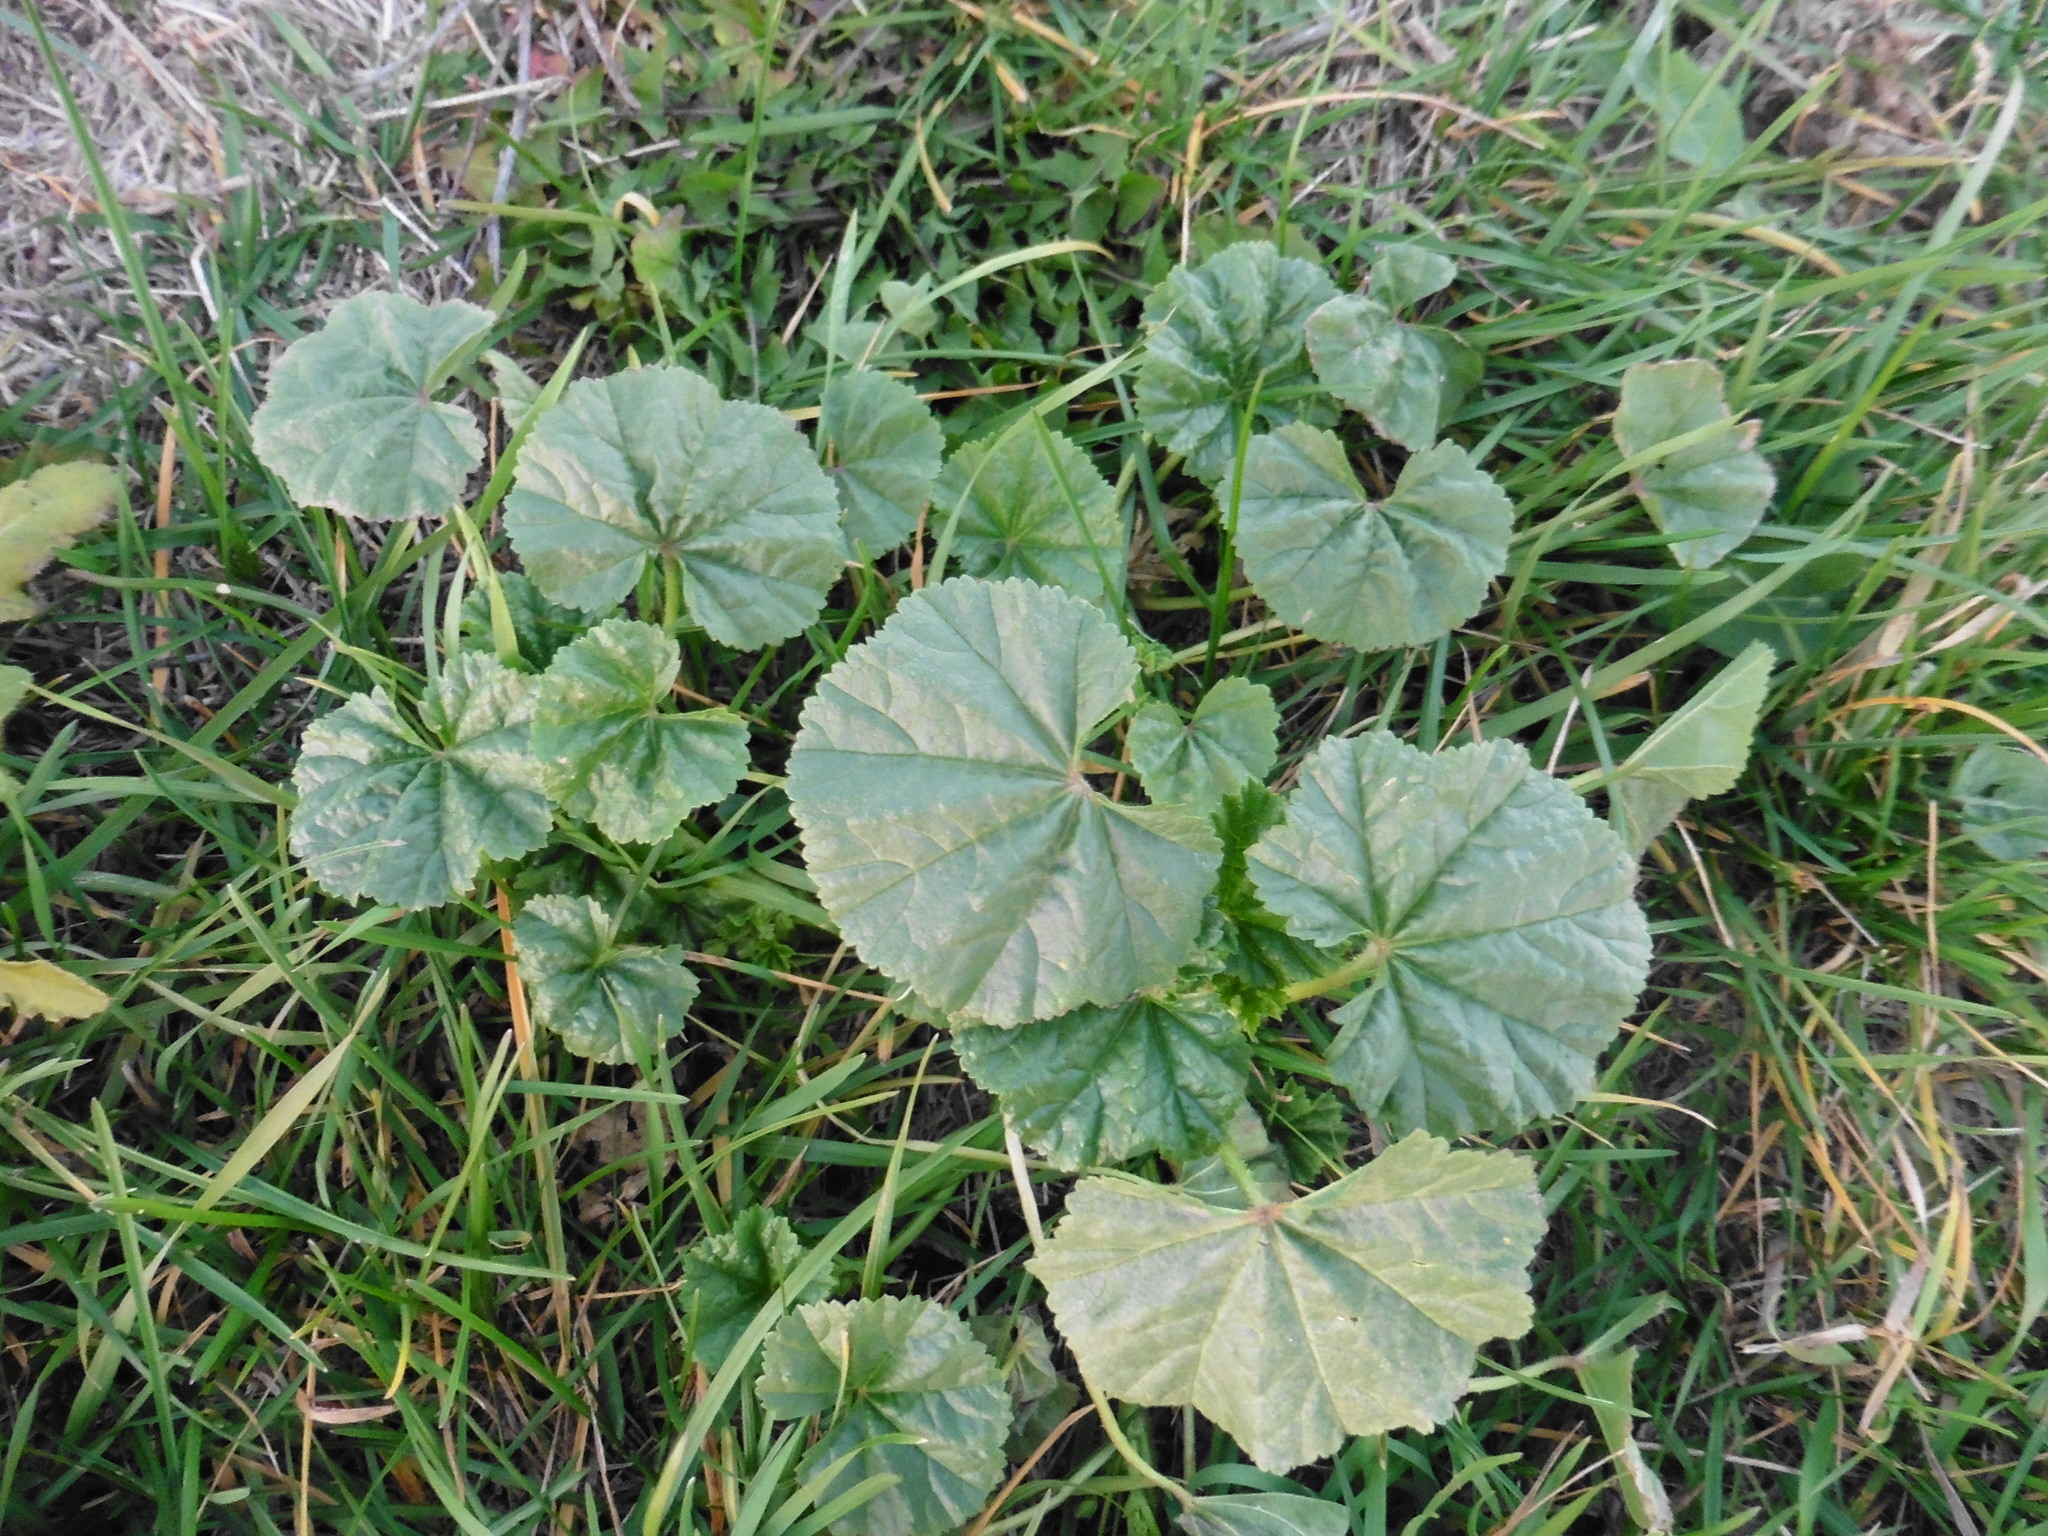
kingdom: Plantae
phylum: Tracheophyta
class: Magnoliopsida
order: Malvales
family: Malvaceae
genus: Malva
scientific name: Malva pusilla
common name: Small mallow
